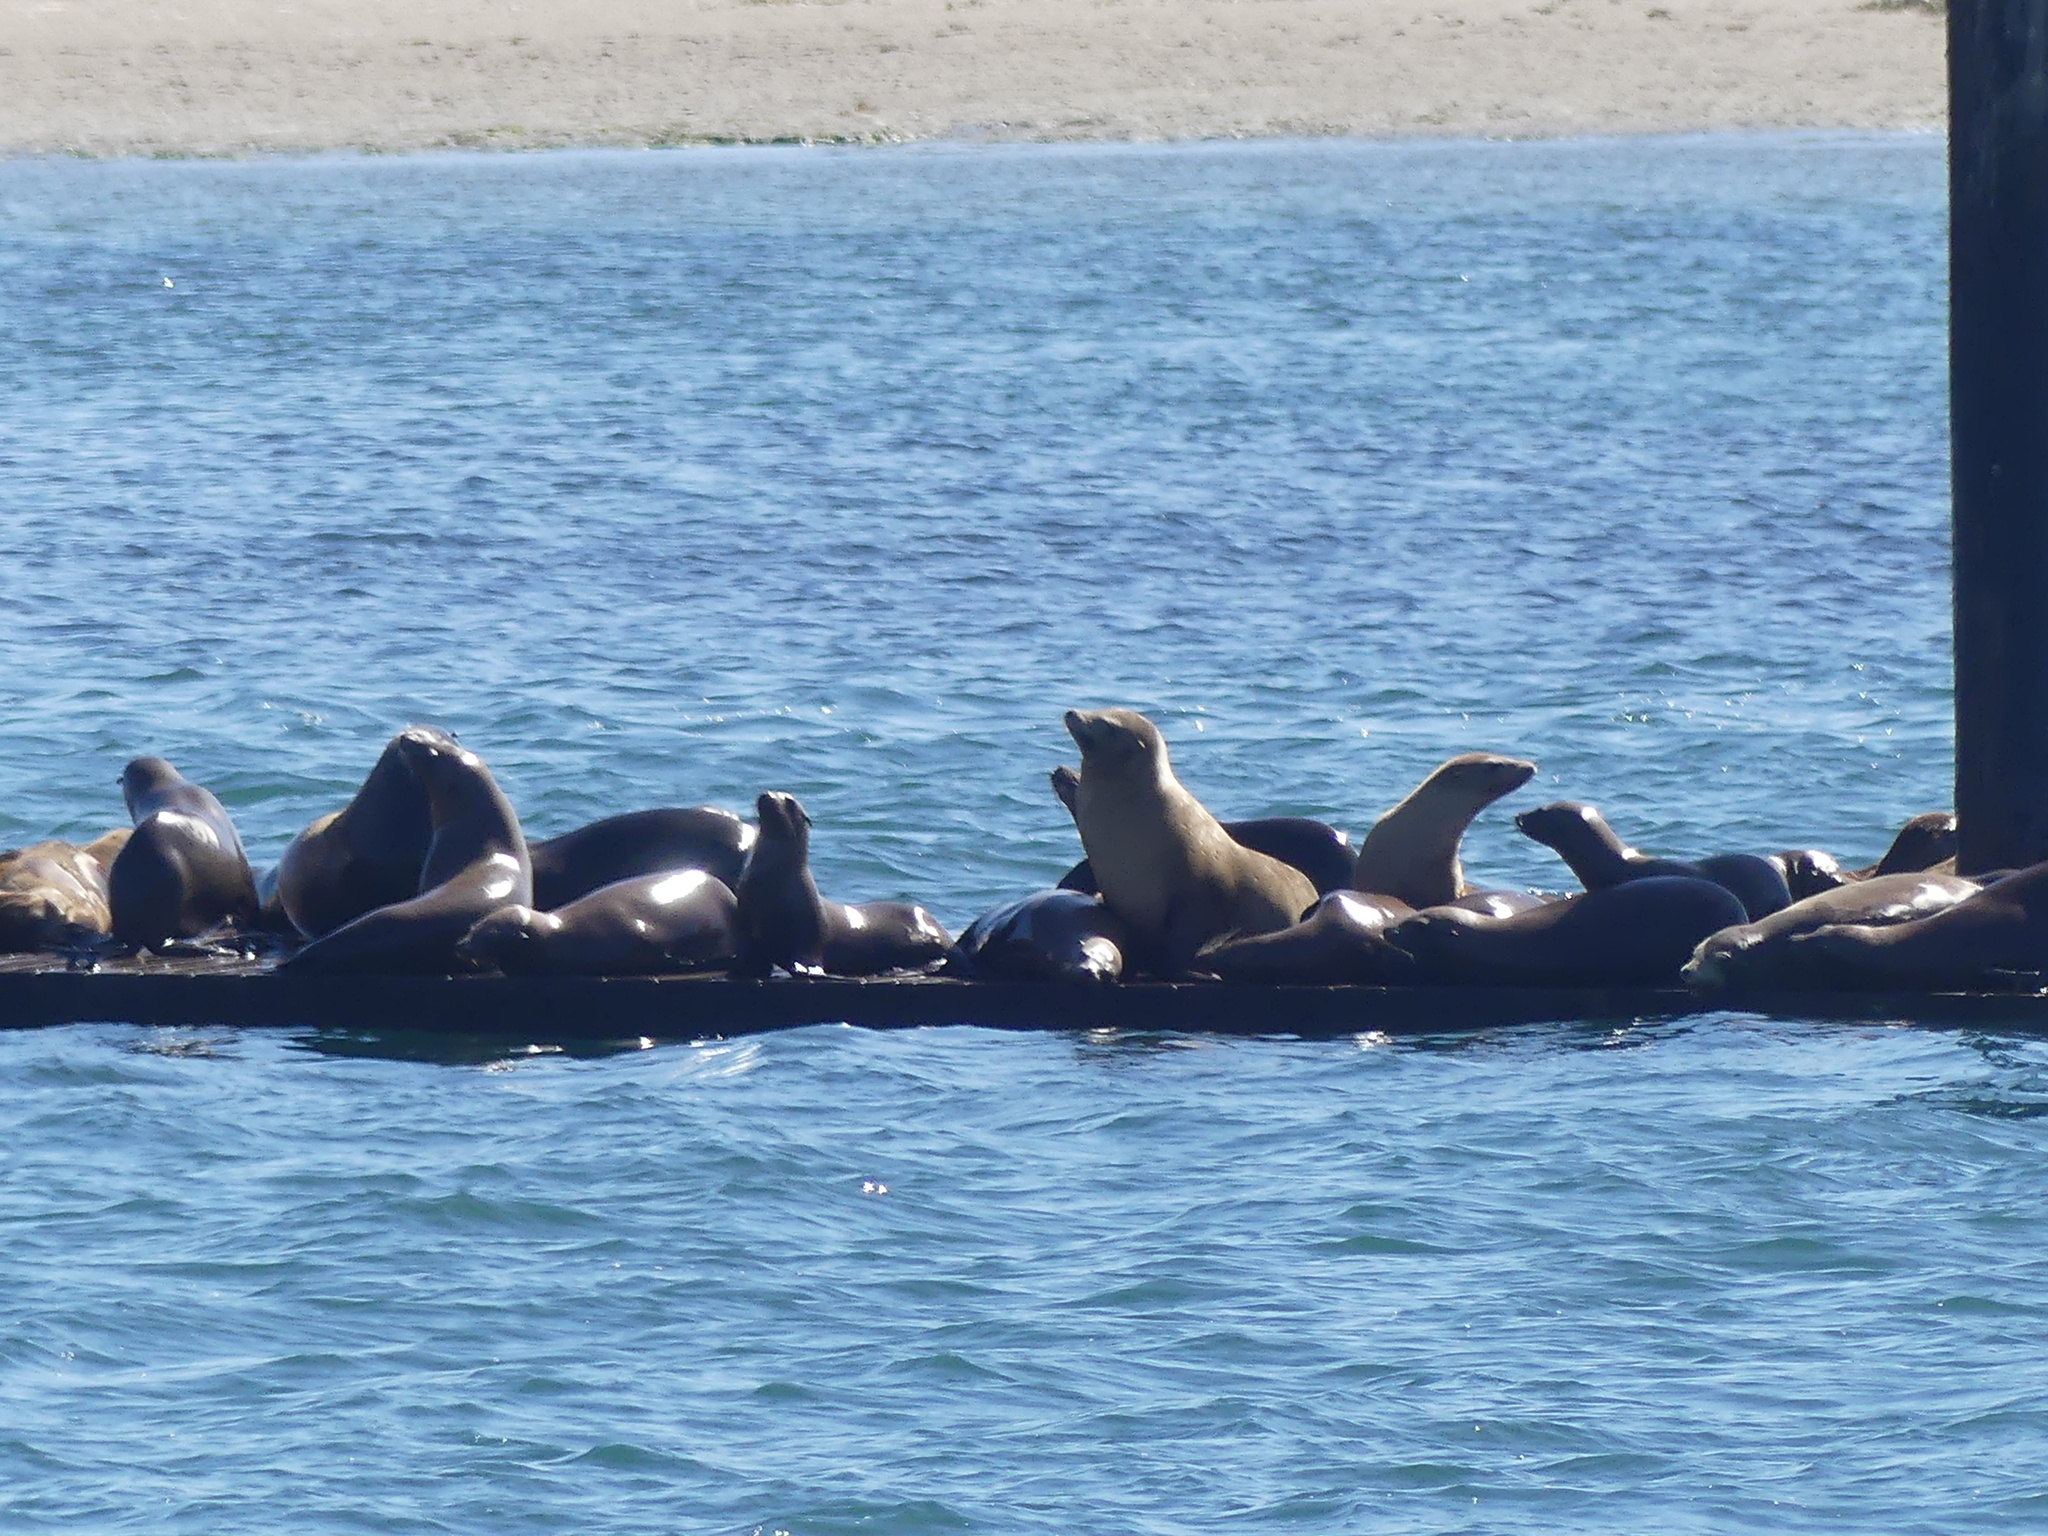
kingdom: Animalia
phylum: Chordata
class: Mammalia
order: Carnivora
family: Otariidae
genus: Zalophus
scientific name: Zalophus californianus
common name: California sea lion
